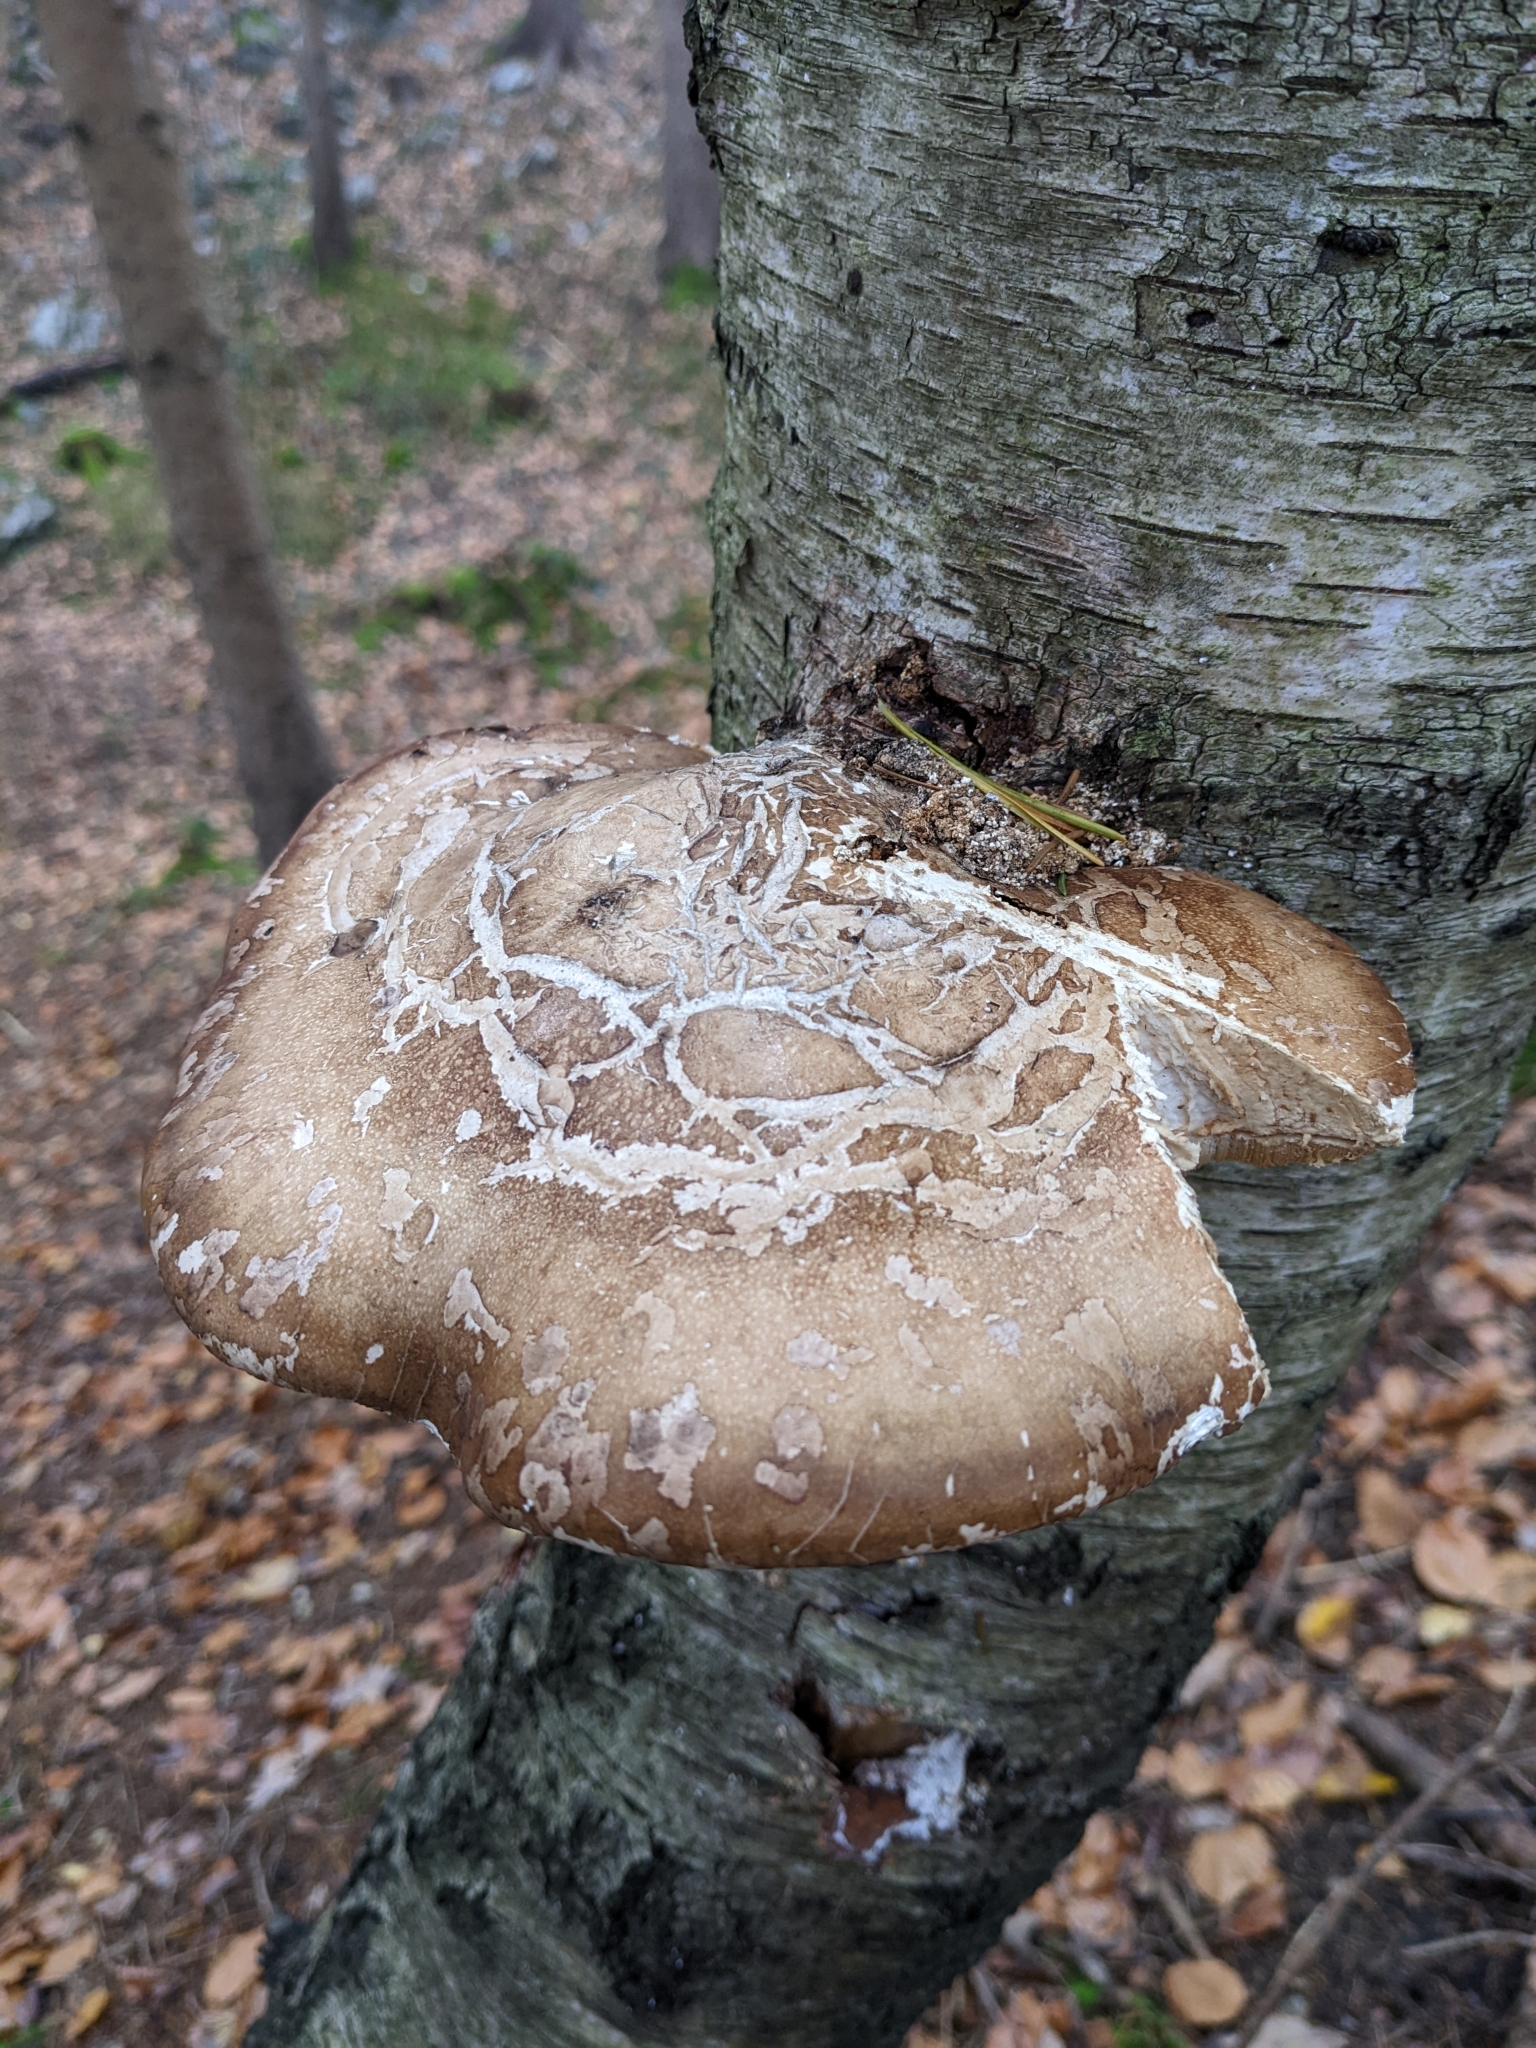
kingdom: Fungi
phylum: Basidiomycota
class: Agaricomycetes
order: Polyporales
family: Fomitopsidaceae
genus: Fomitopsis
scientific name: Fomitopsis betulina
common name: Birch polypore
